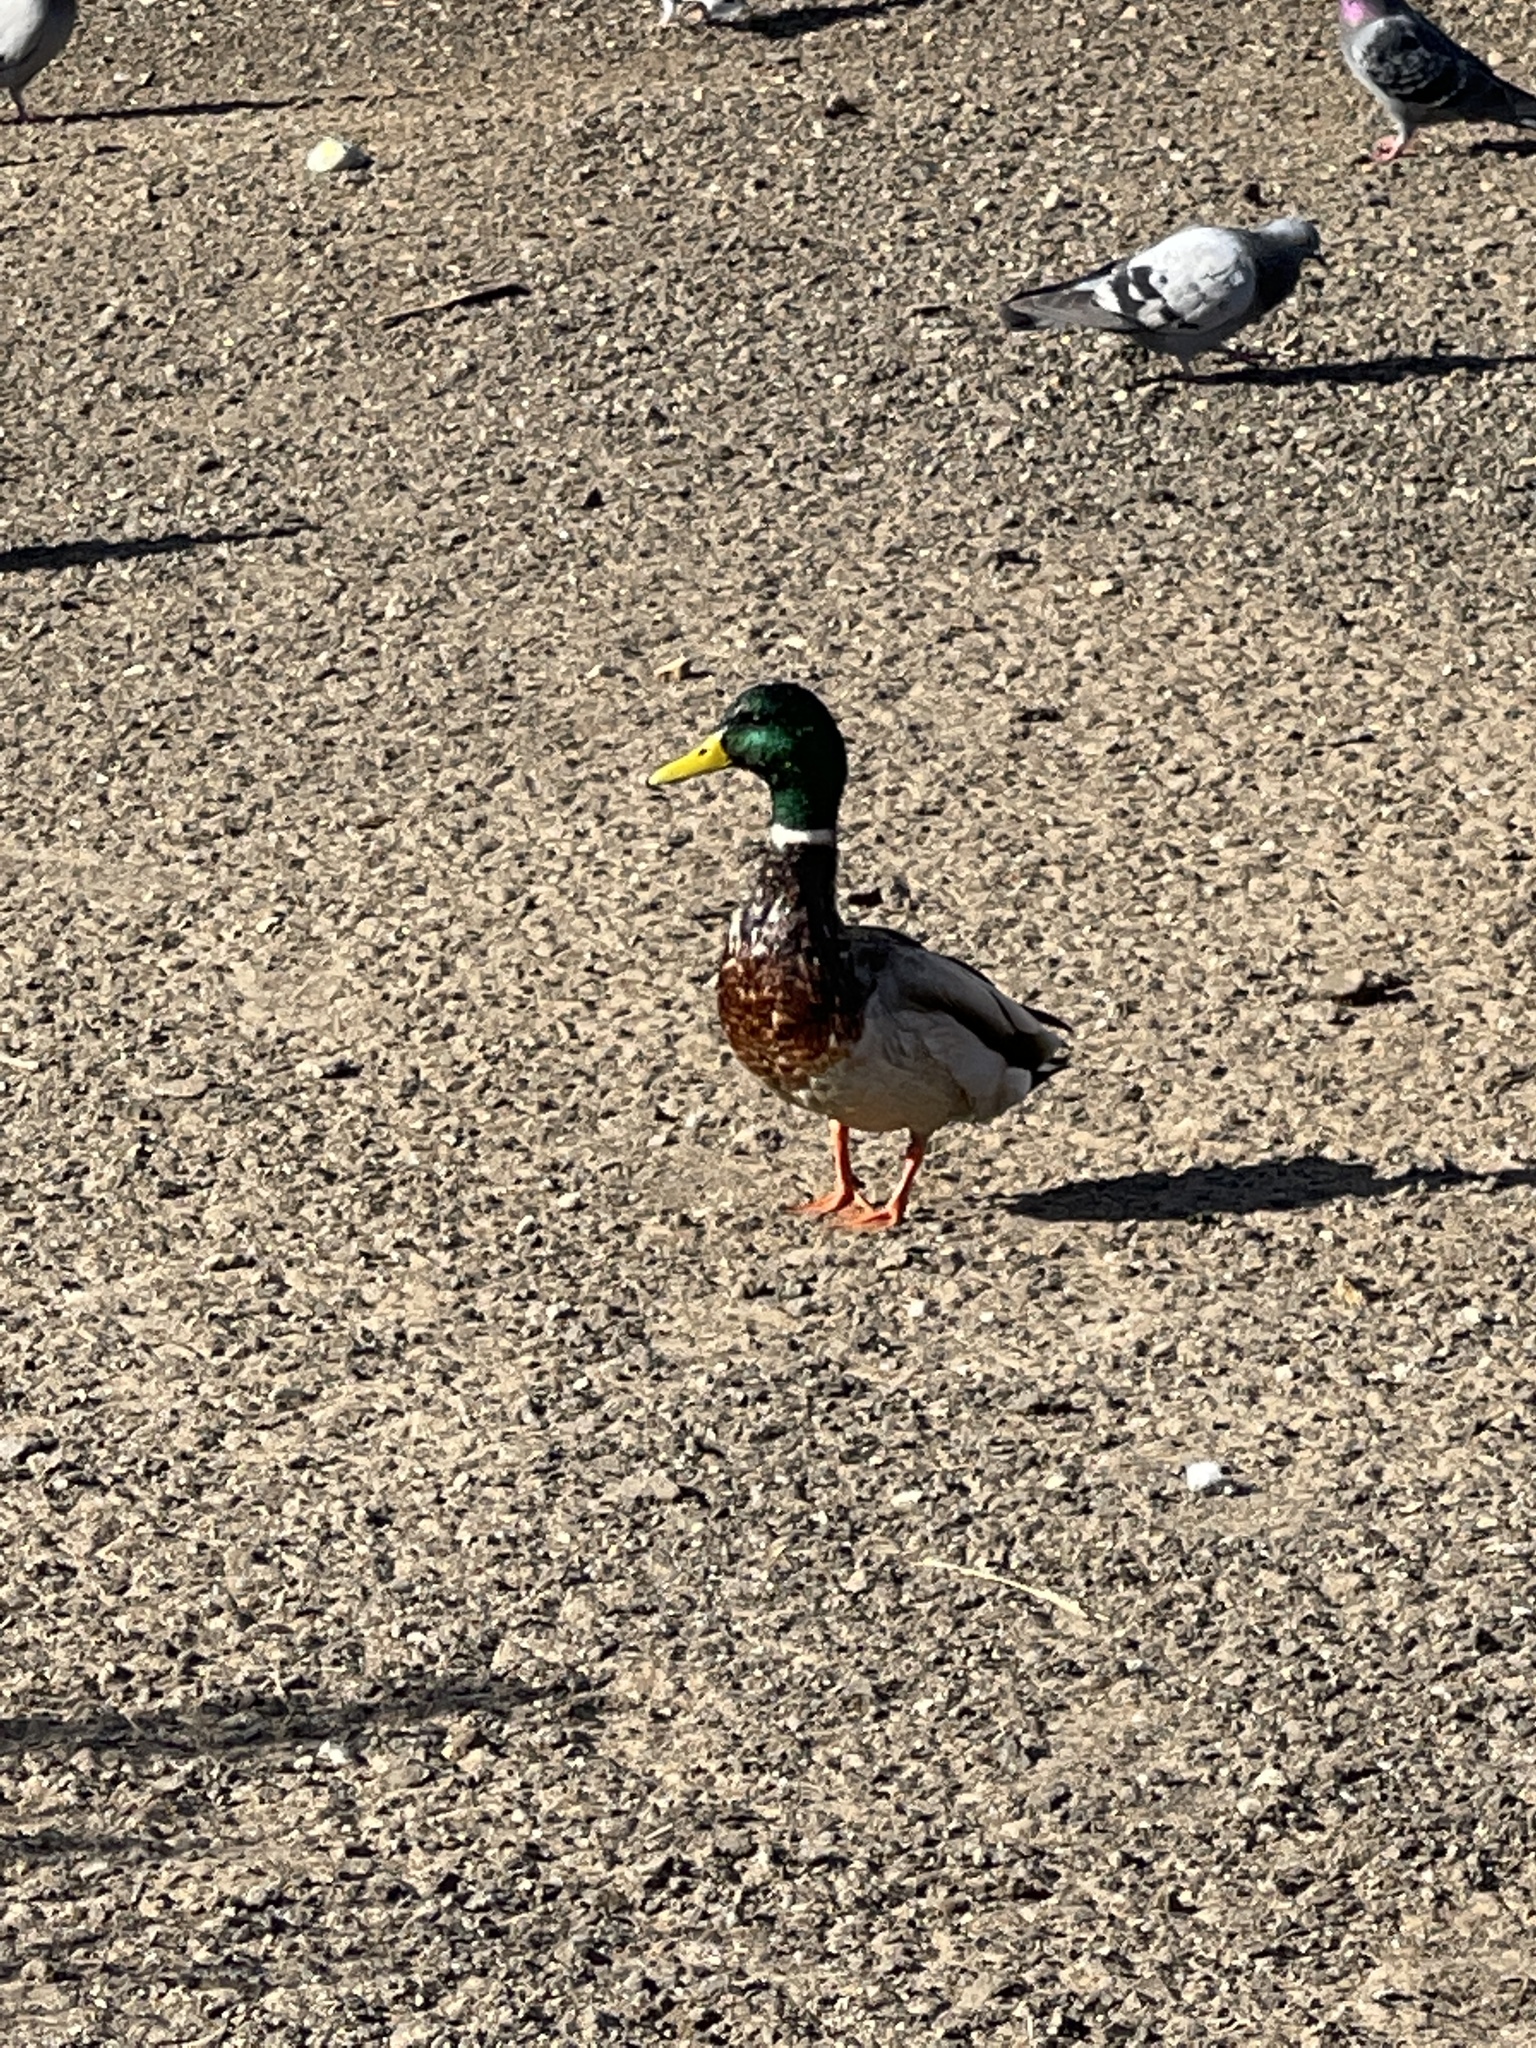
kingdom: Animalia
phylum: Chordata
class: Aves
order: Anseriformes
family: Anatidae
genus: Anas
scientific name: Anas platyrhynchos
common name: Mallard
